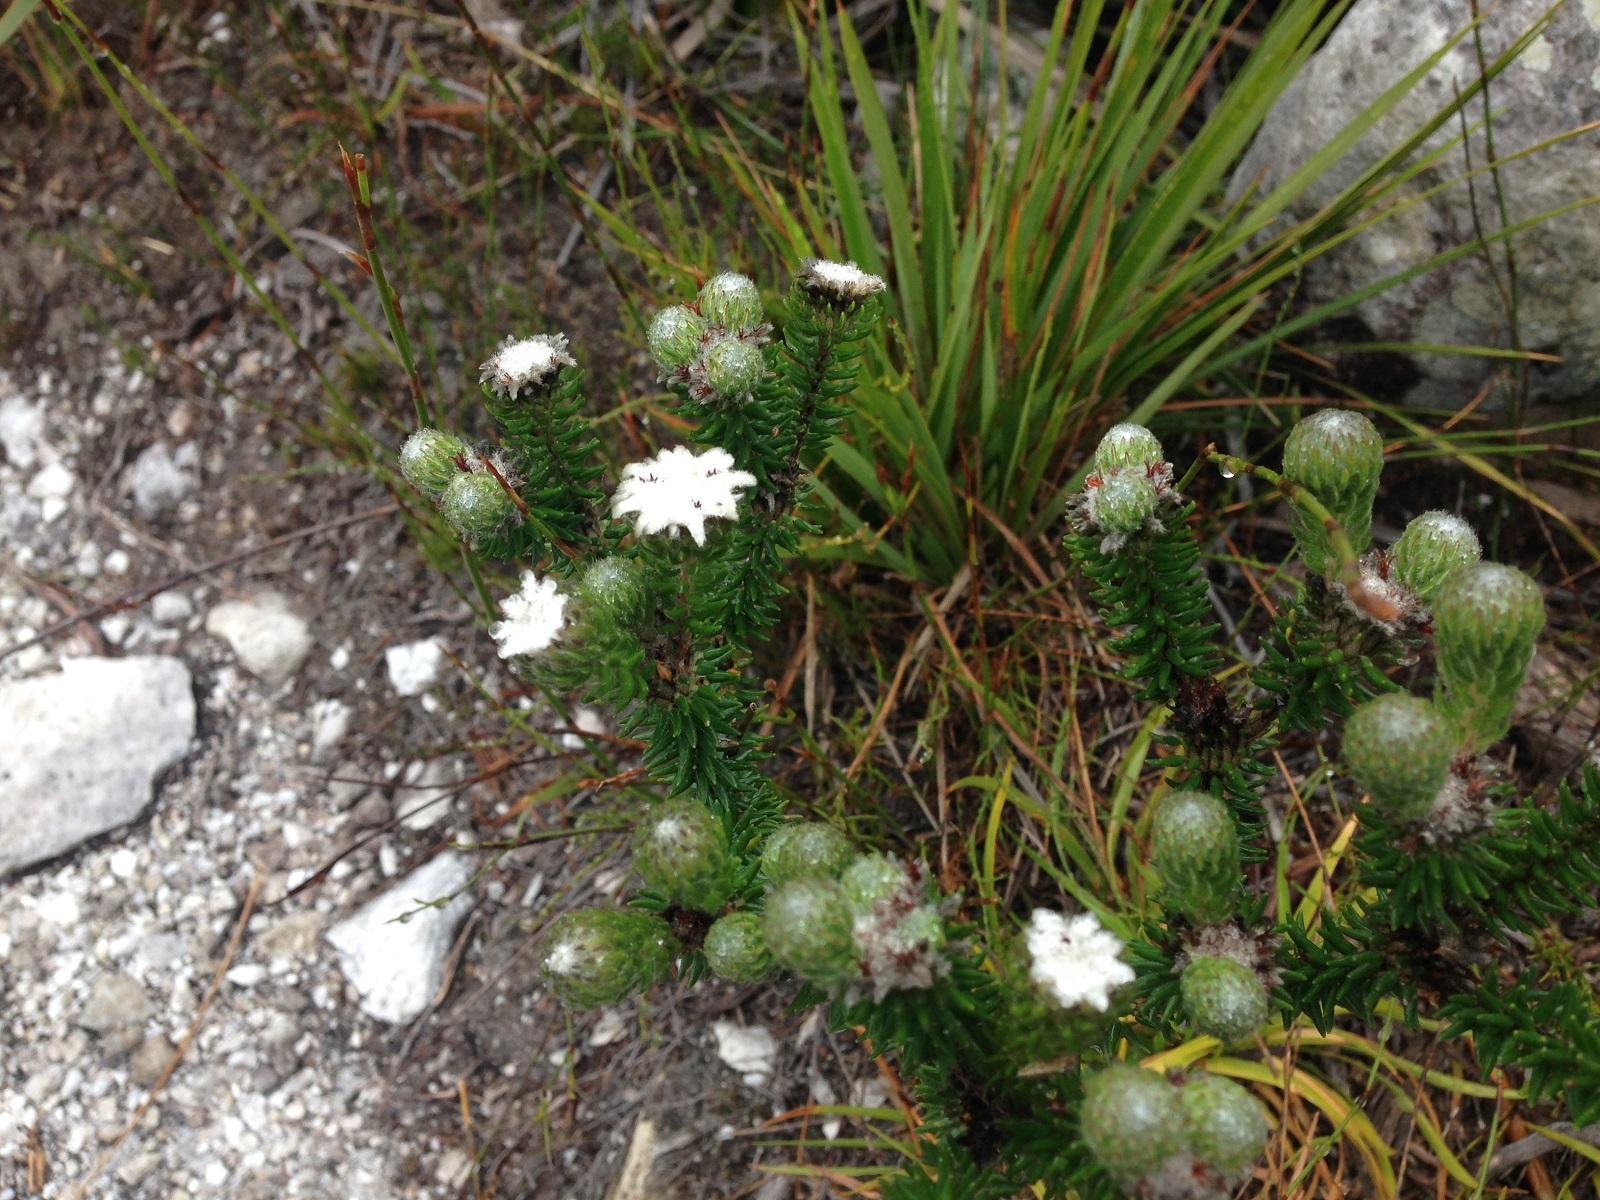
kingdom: Plantae
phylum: Tracheophyta
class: Magnoliopsida
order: Rosales
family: Rhamnaceae
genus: Phylica
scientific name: Phylica curvifolia
